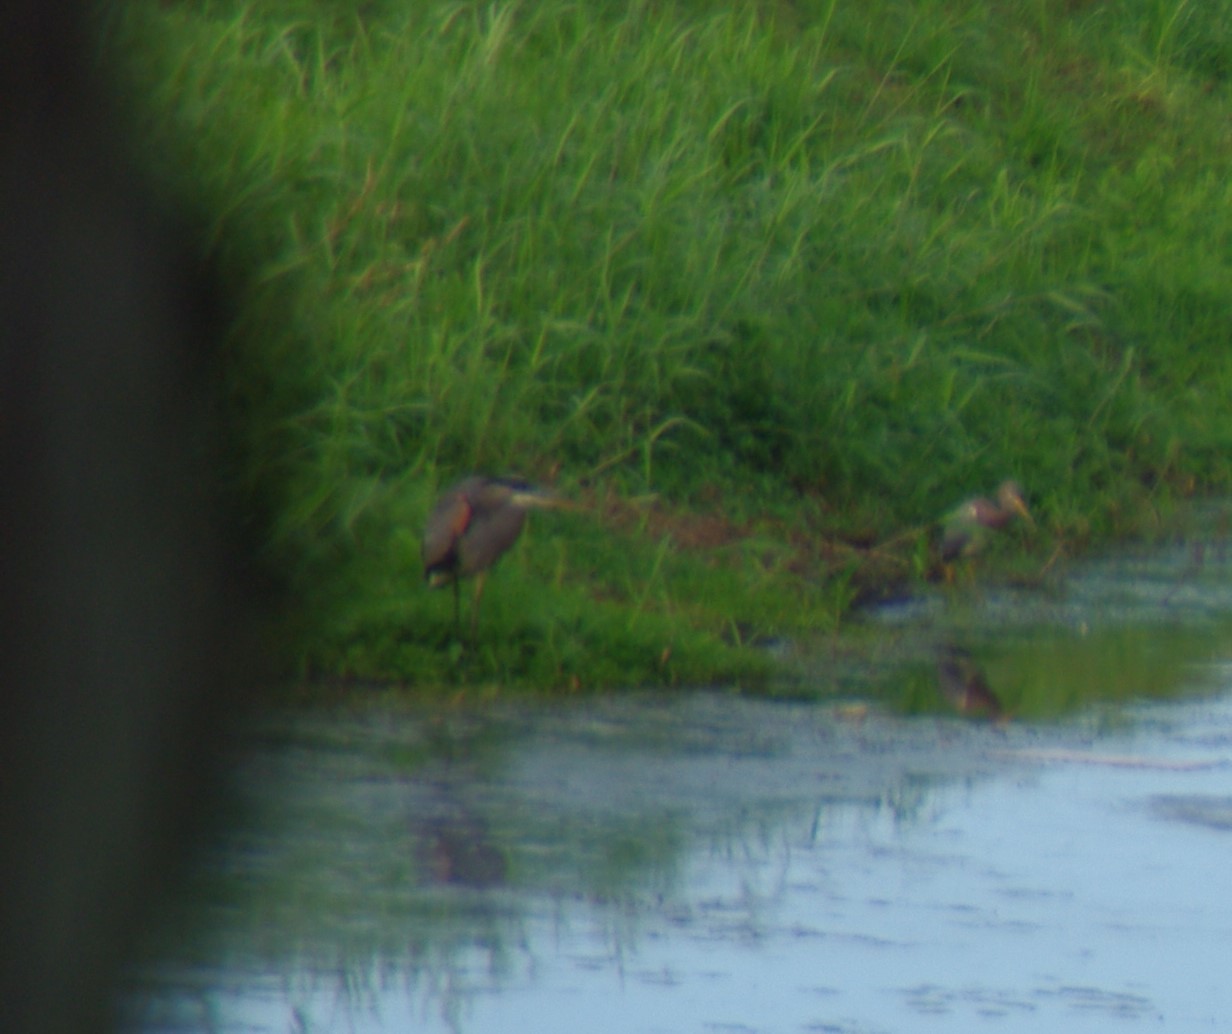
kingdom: Animalia
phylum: Chordata
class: Aves
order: Pelecaniformes
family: Ardeidae
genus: Ardea
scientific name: Ardea herodias
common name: Great blue heron
